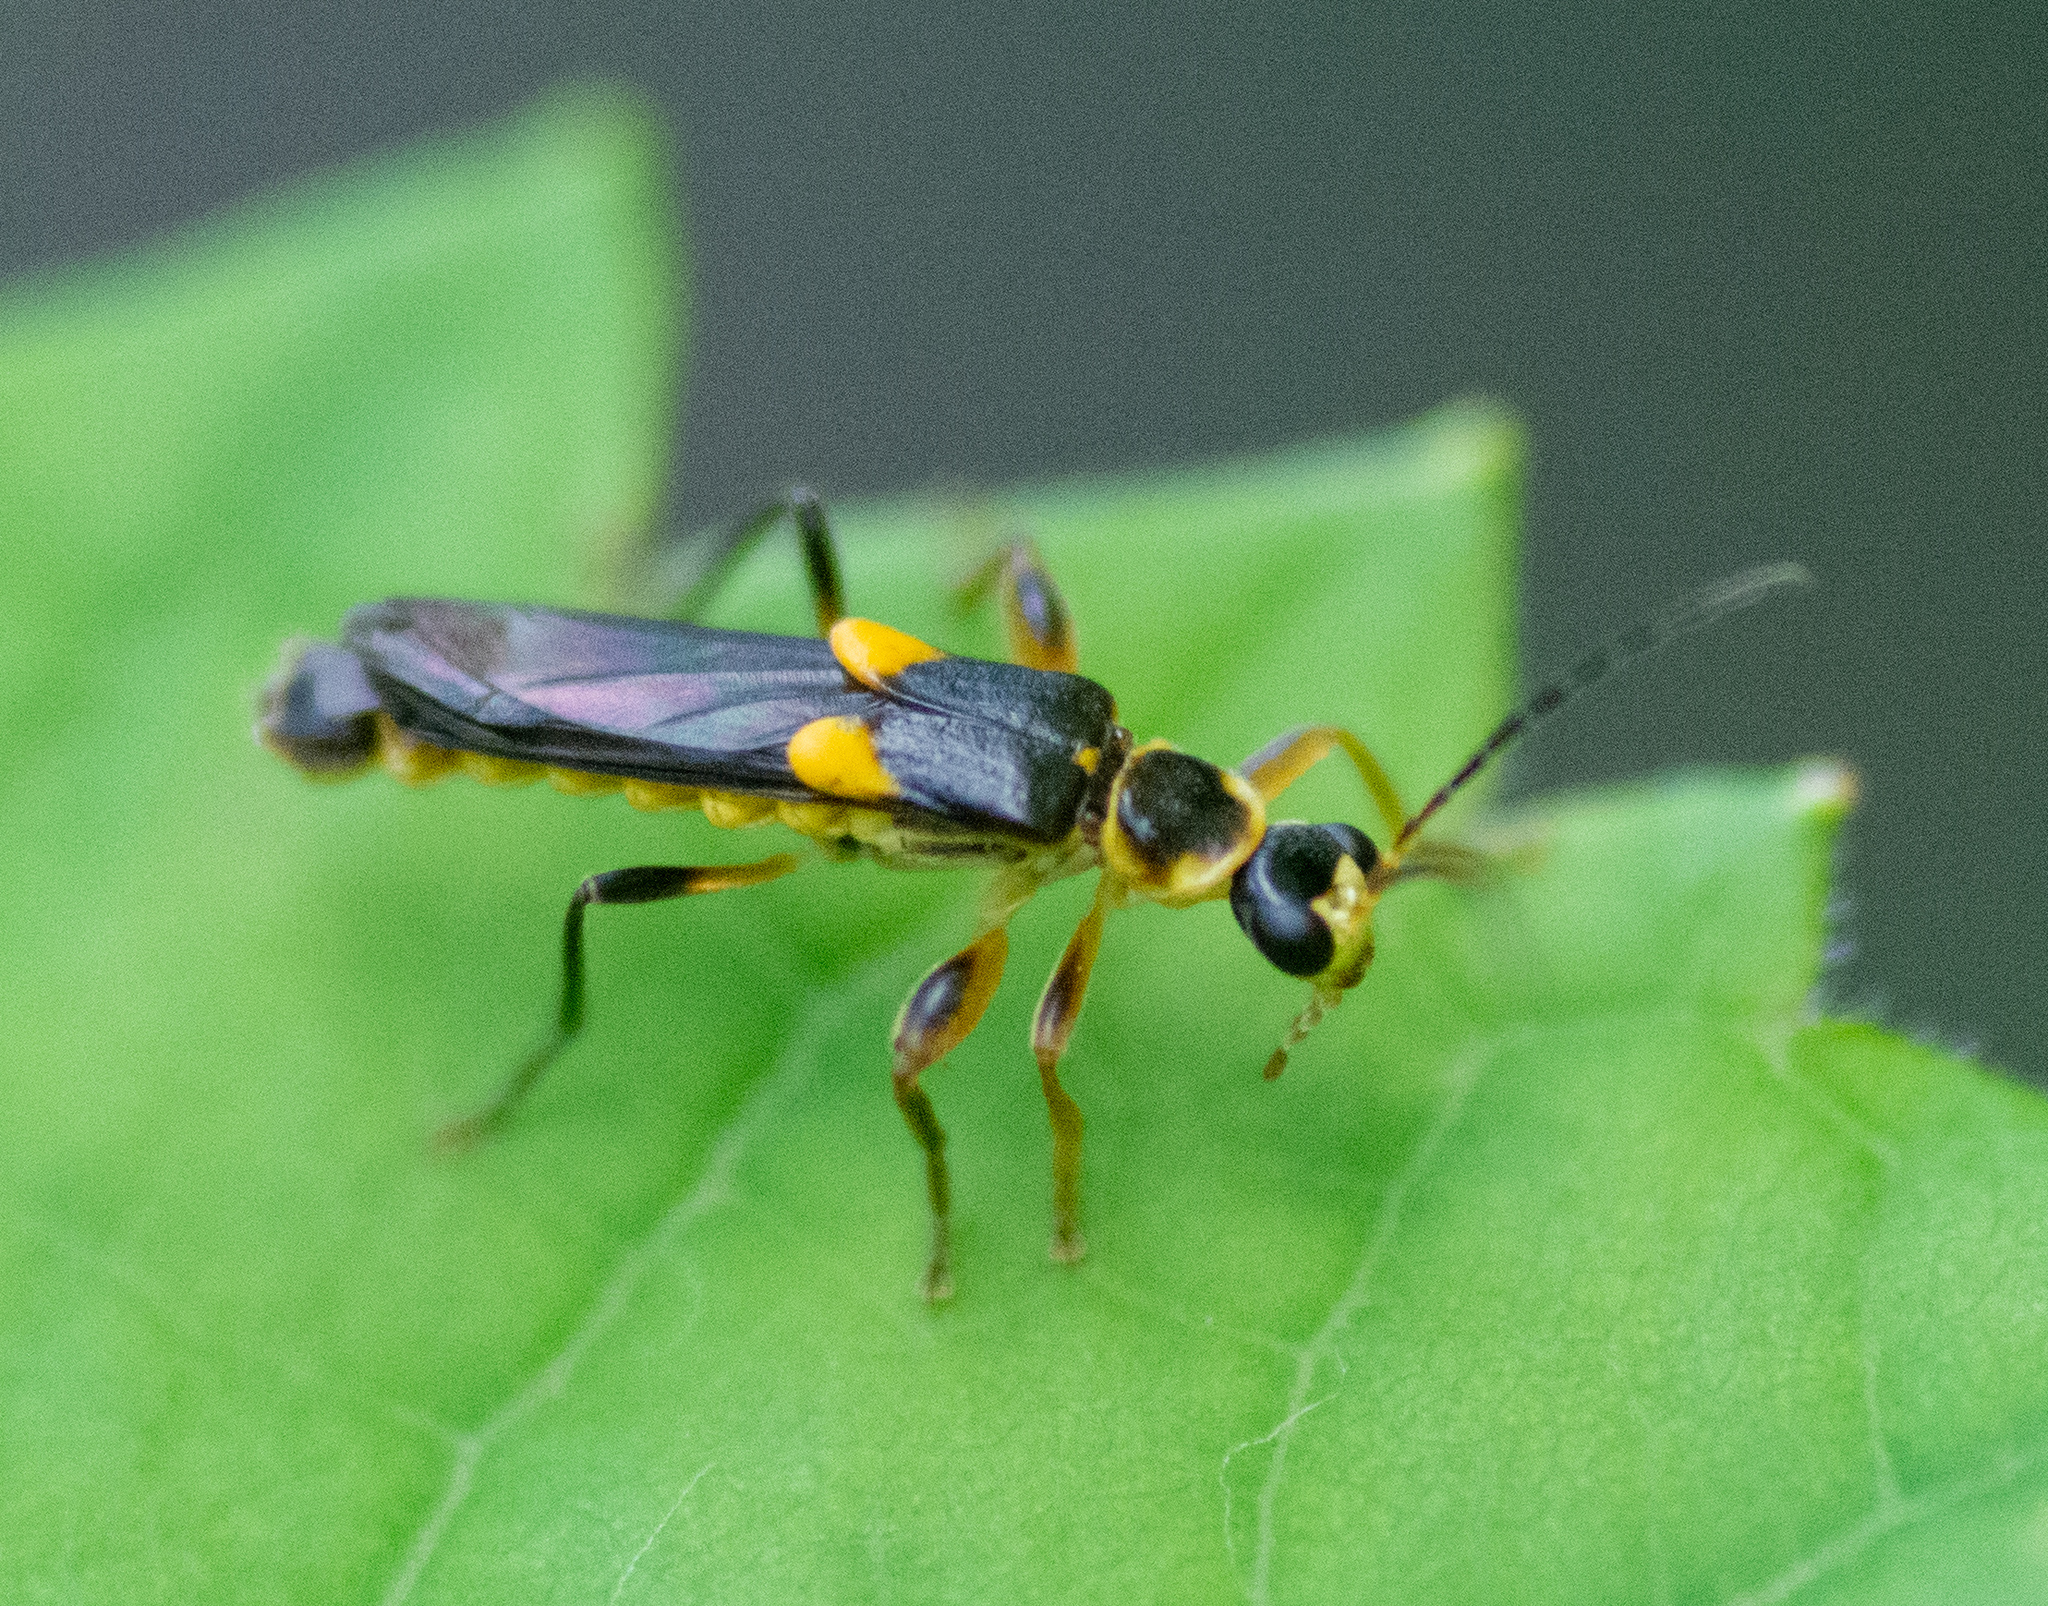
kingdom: Animalia
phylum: Arthropoda
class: Insecta
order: Coleoptera
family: Cantharidae
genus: Trypherus
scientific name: Trypherus frisoni
